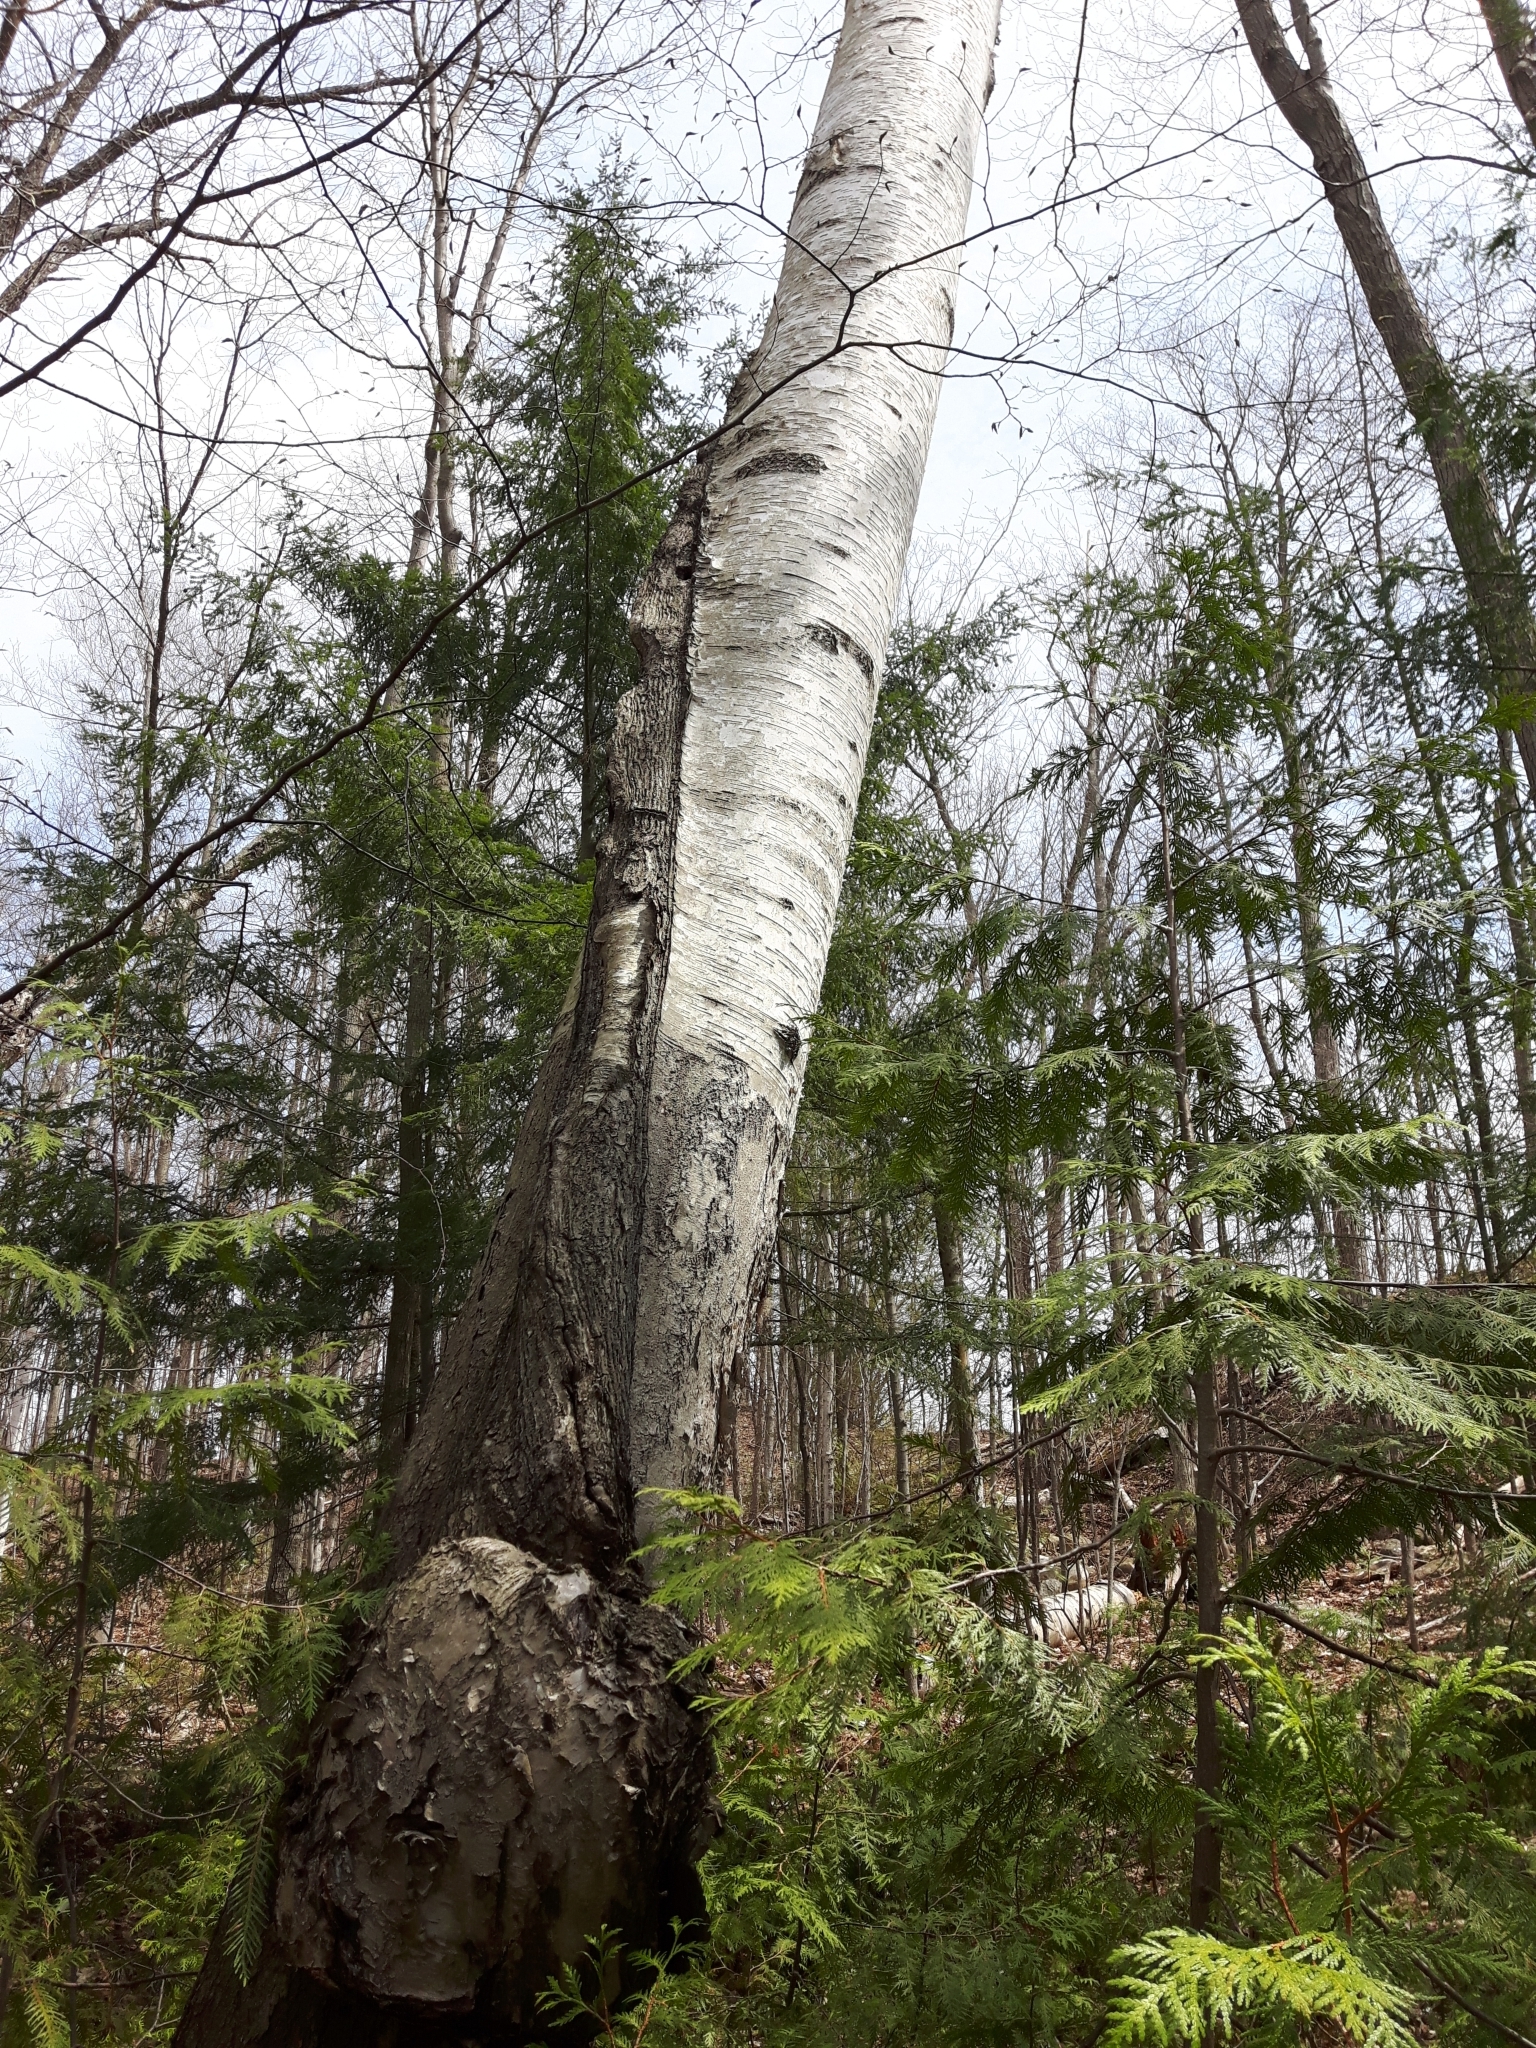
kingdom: Plantae
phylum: Tracheophyta
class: Magnoliopsida
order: Fagales
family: Betulaceae
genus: Betula
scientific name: Betula papyrifera
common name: Paper birch
